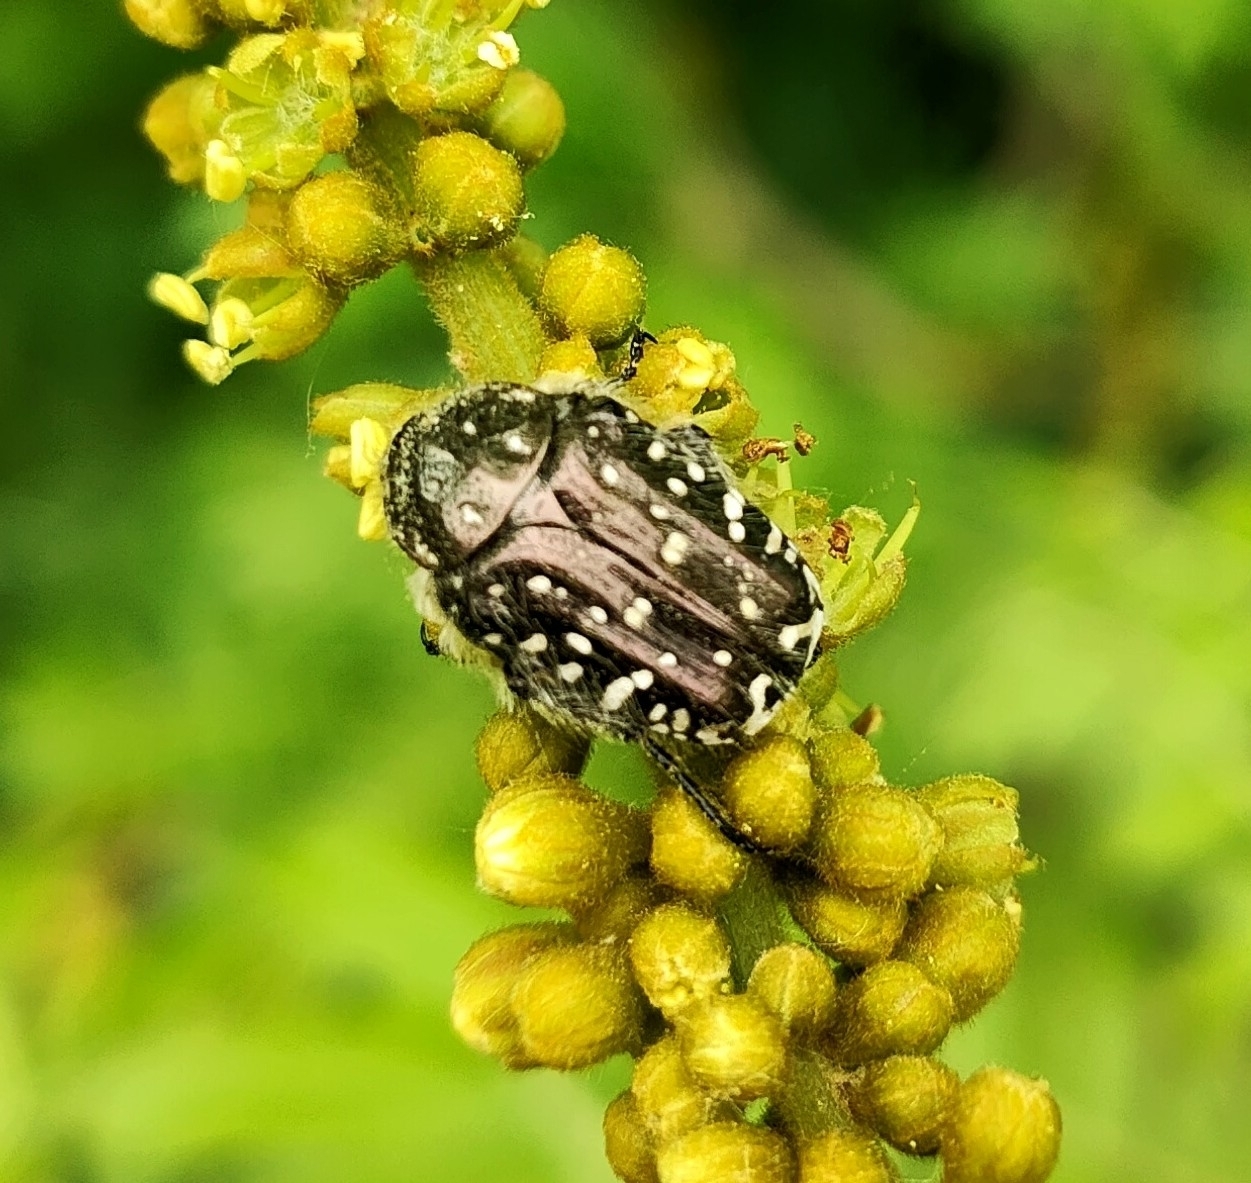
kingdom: Animalia
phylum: Arthropoda
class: Insecta
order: Coleoptera
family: Scarabaeidae
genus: Oxythyrea
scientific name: Oxythyrea funesta
